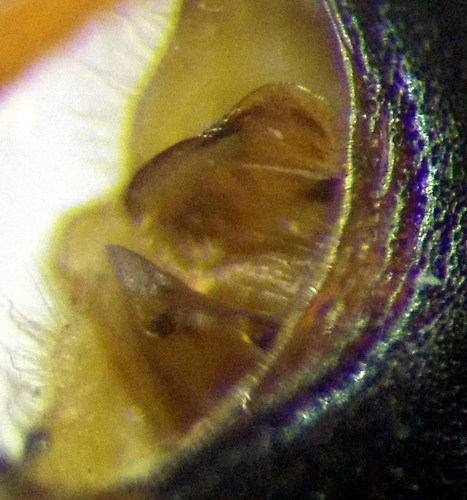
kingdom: Animalia
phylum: Arthropoda
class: Insecta
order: Hemiptera
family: Pentatomidae
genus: Carpocoris
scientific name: Carpocoris coreanus
